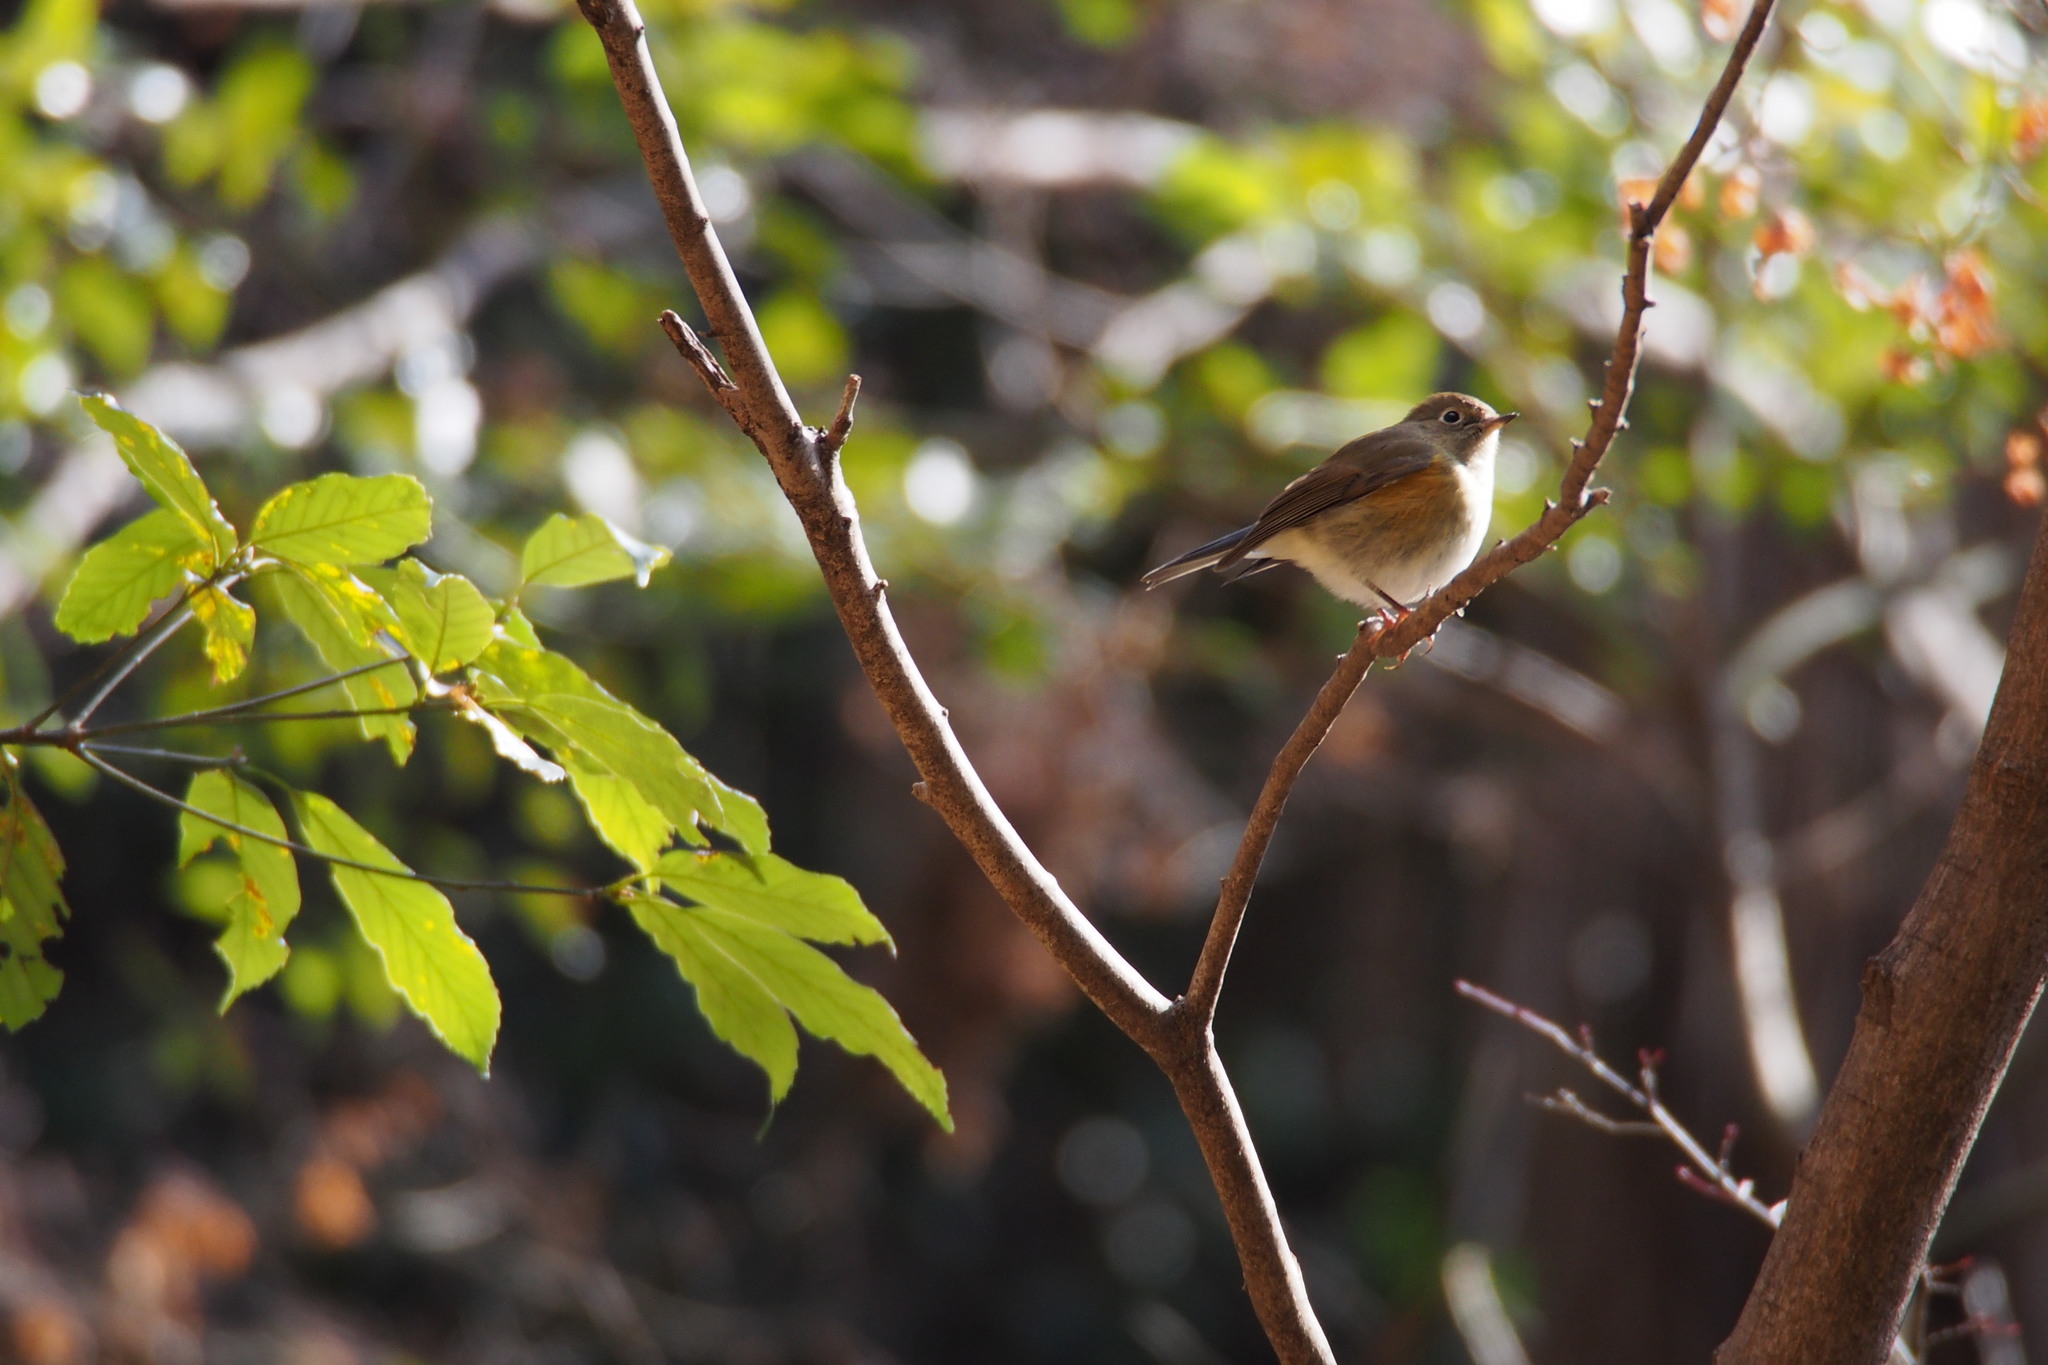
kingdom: Animalia
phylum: Chordata
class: Aves
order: Passeriformes
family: Muscicapidae
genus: Tarsiger
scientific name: Tarsiger cyanurus
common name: Red-flanked bluetail
